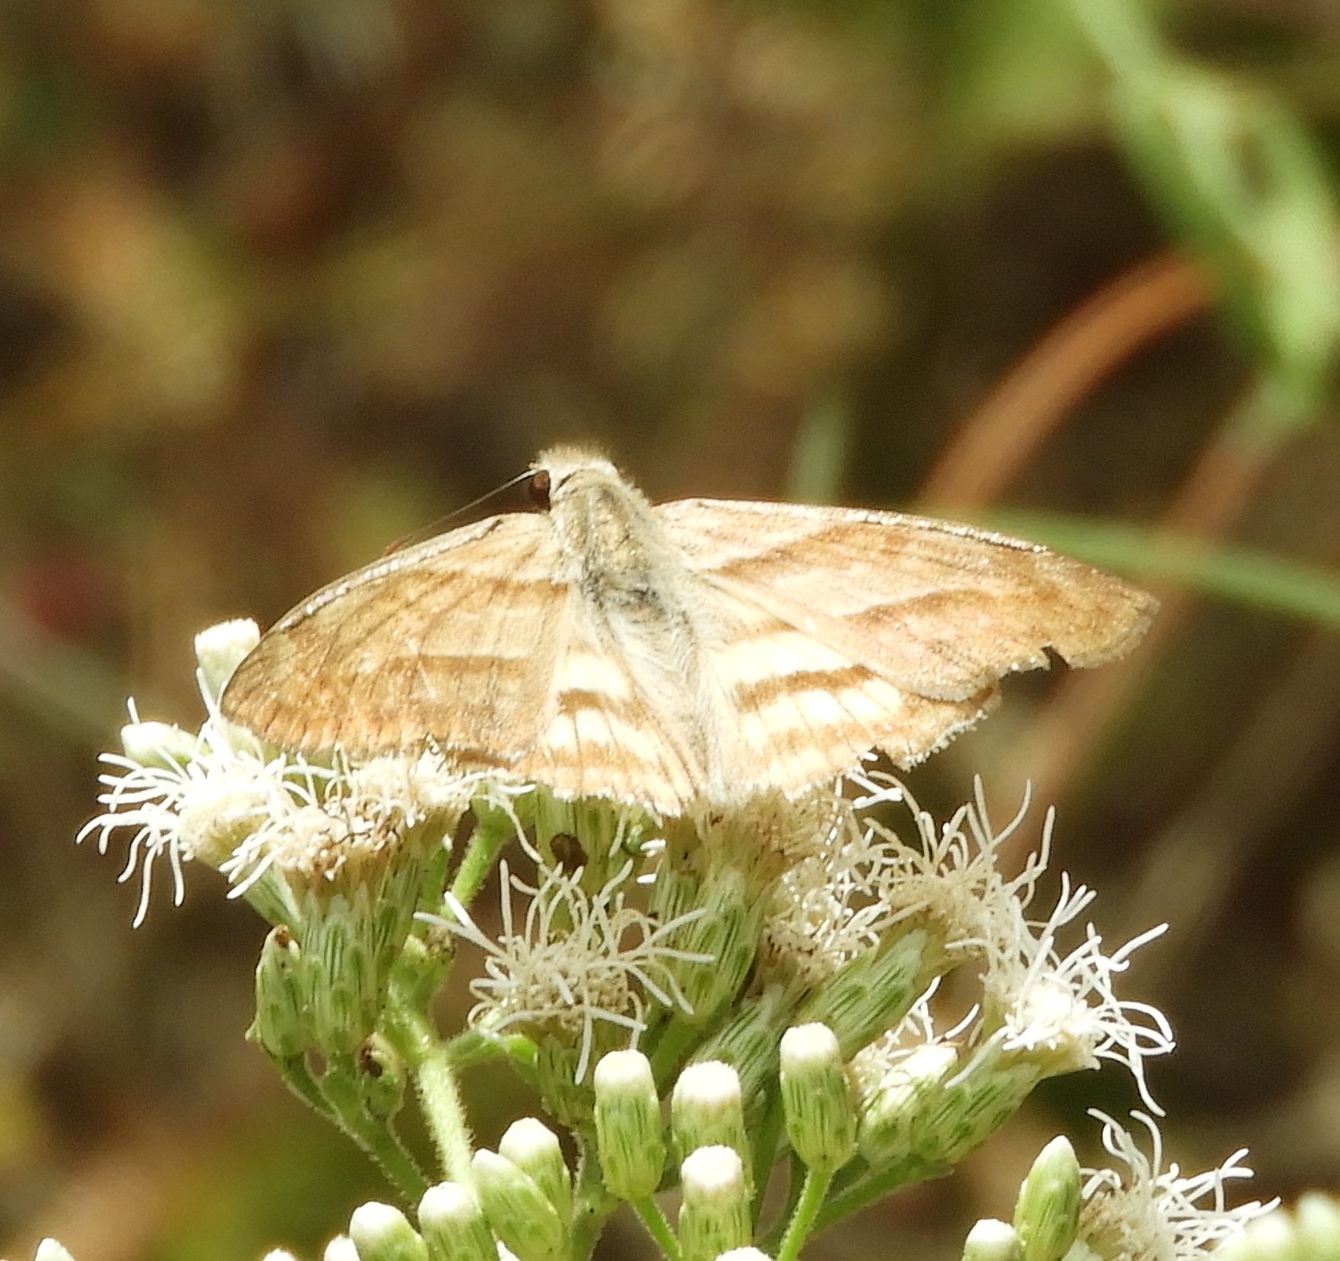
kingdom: Animalia
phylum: Arthropoda
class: Insecta
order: Lepidoptera
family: Hesperiidae
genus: Timochares
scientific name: Timochares trifasciata
